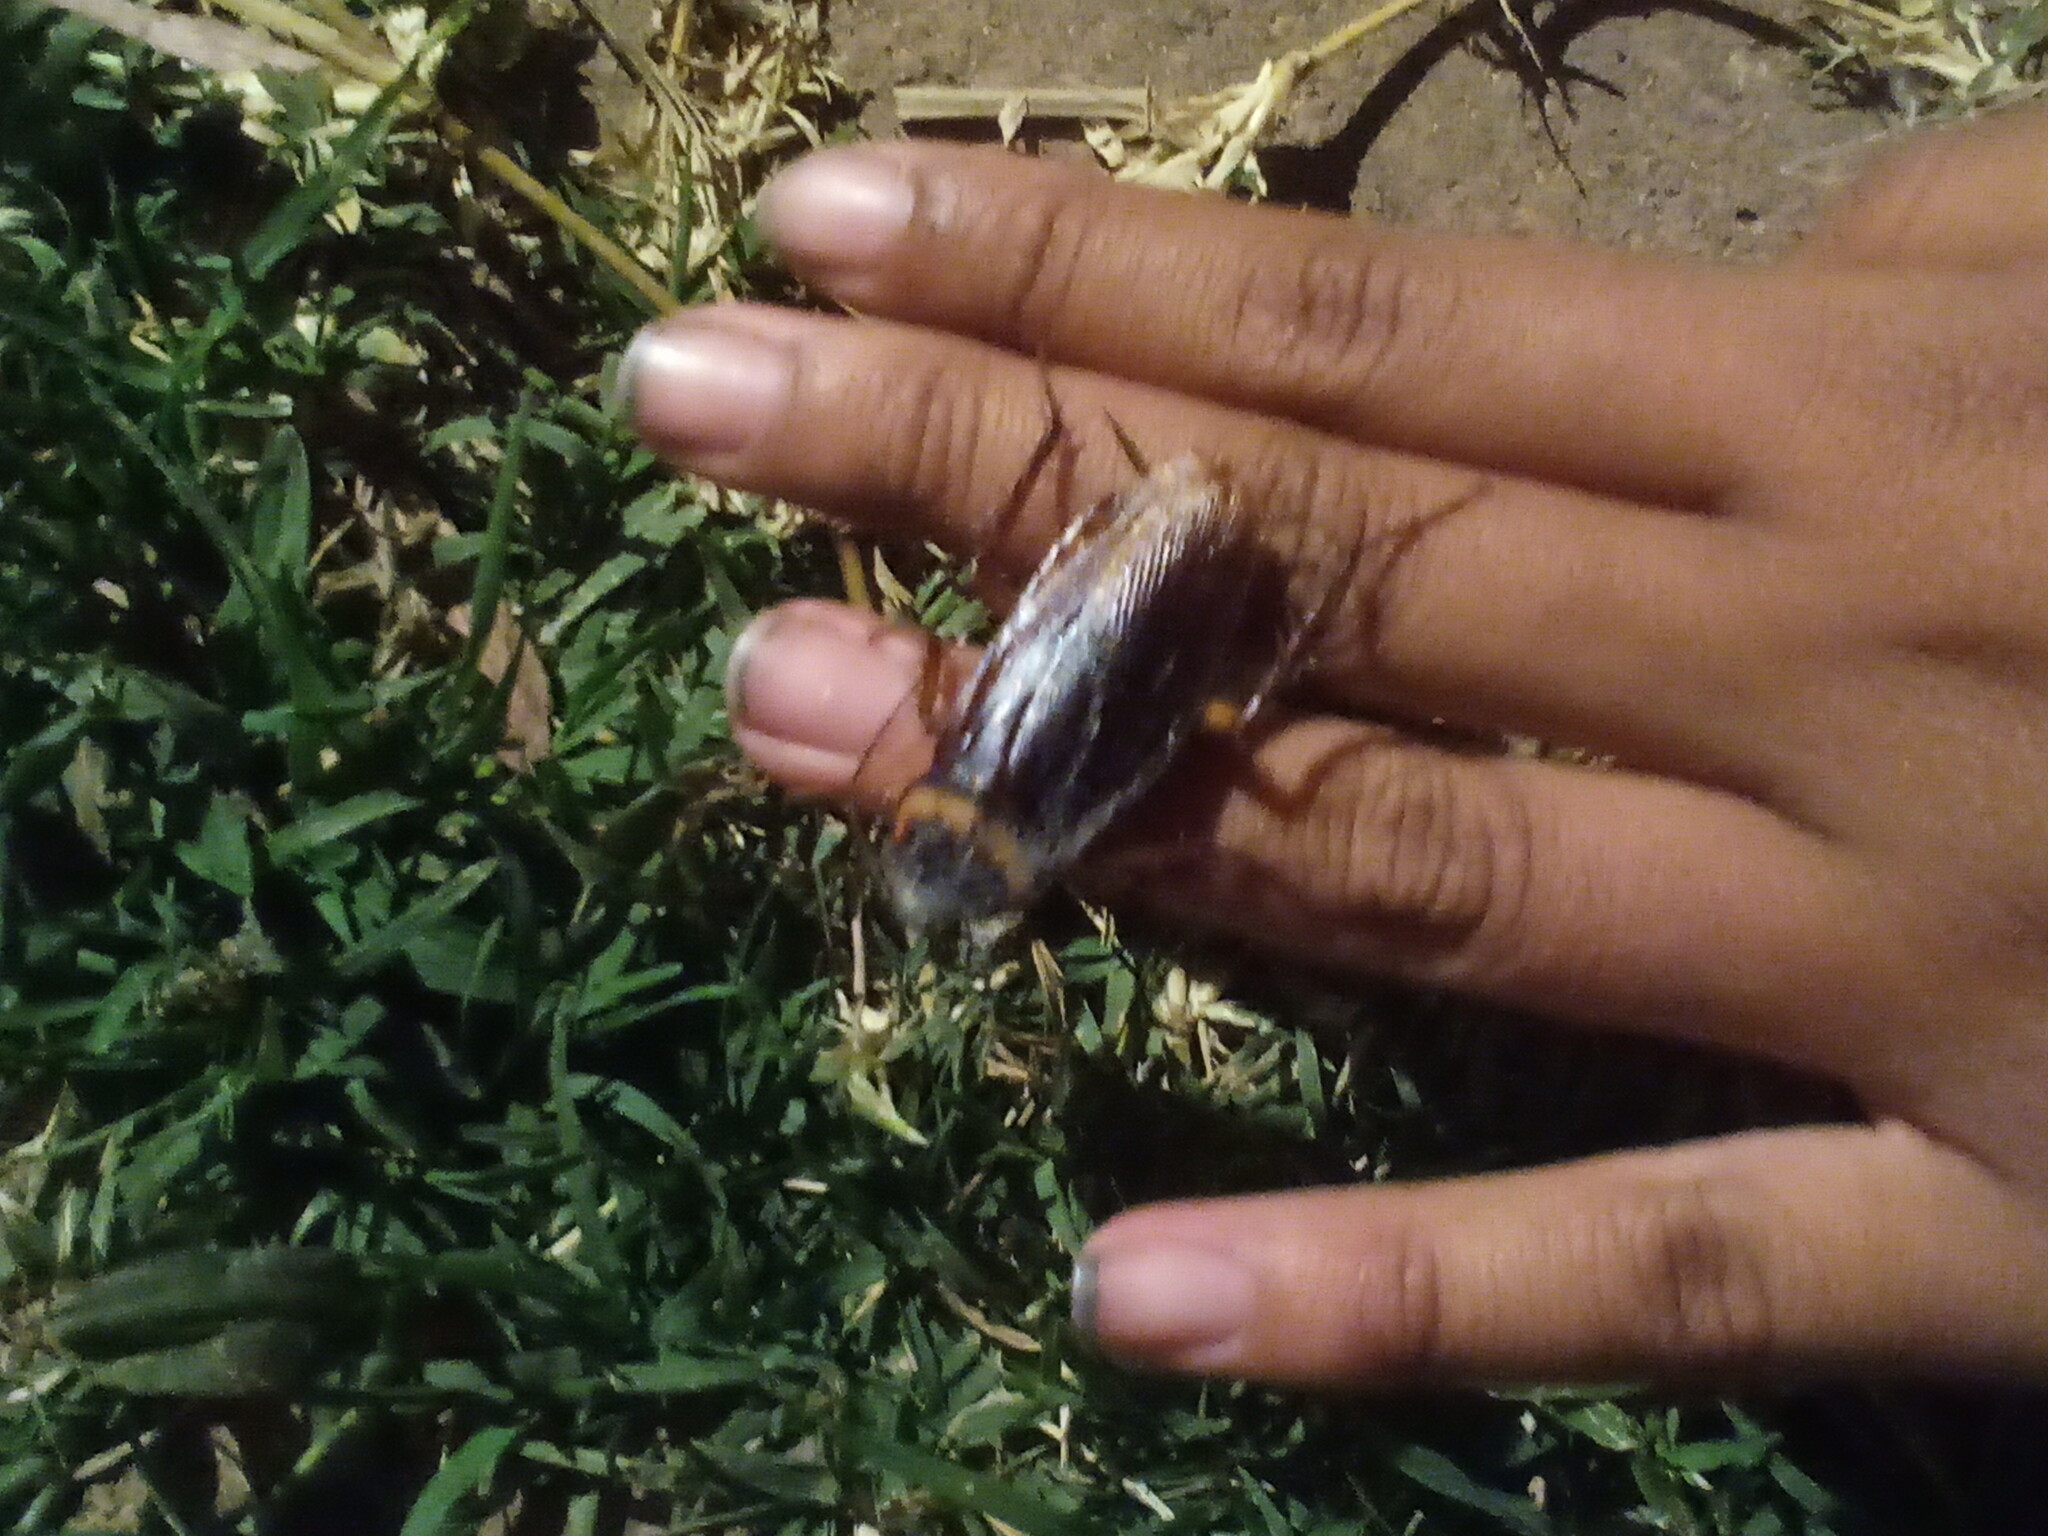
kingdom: Animalia
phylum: Arthropoda
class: Insecta
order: Blattodea
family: Blattidae
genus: Periplaneta
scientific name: Periplaneta americana
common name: American cockroach
